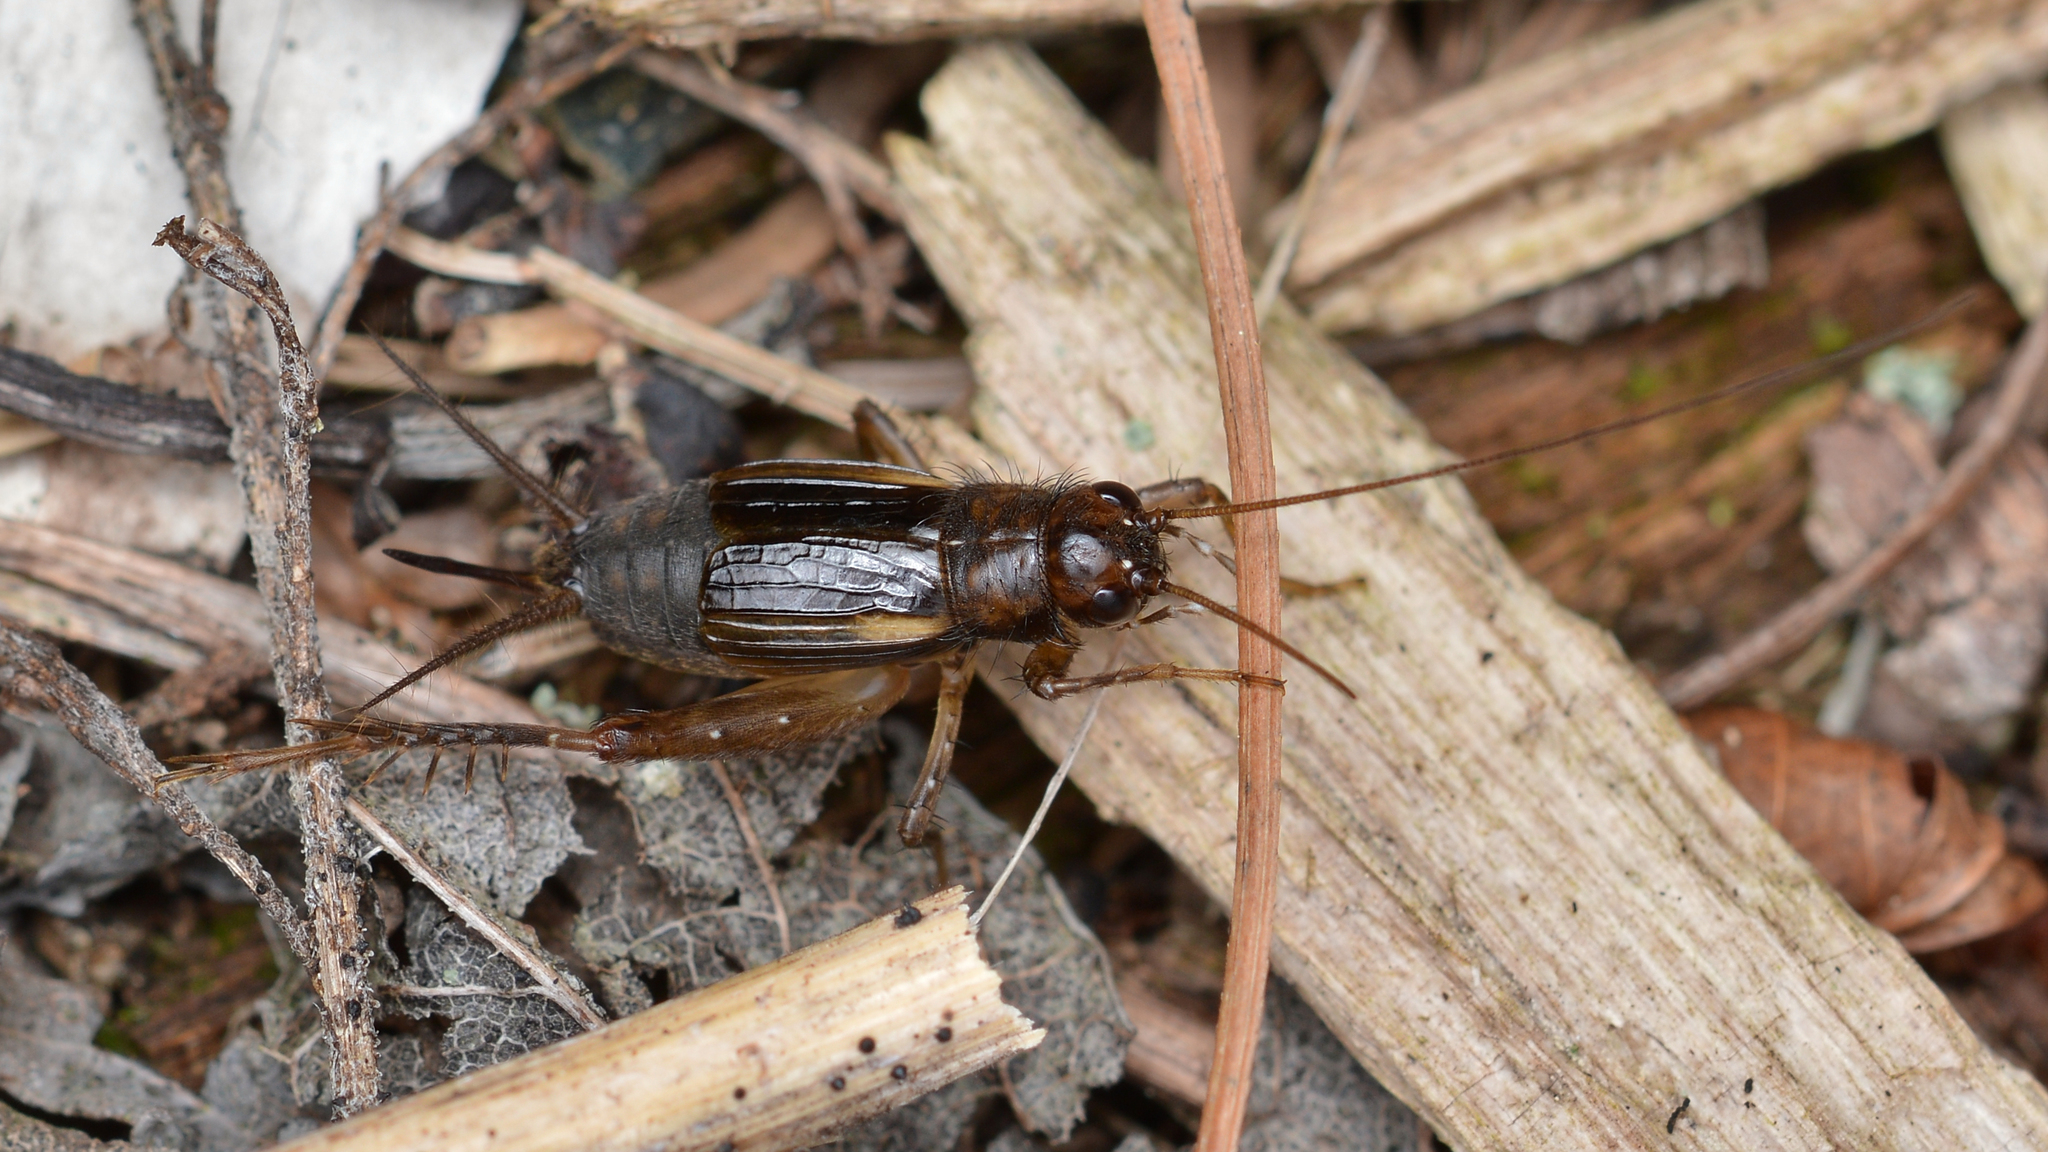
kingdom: Animalia
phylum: Arthropoda
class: Insecta
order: Orthoptera
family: Trigonidiidae
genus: Eunemobius
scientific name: Eunemobius carolinus
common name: Carolina ground cricket
